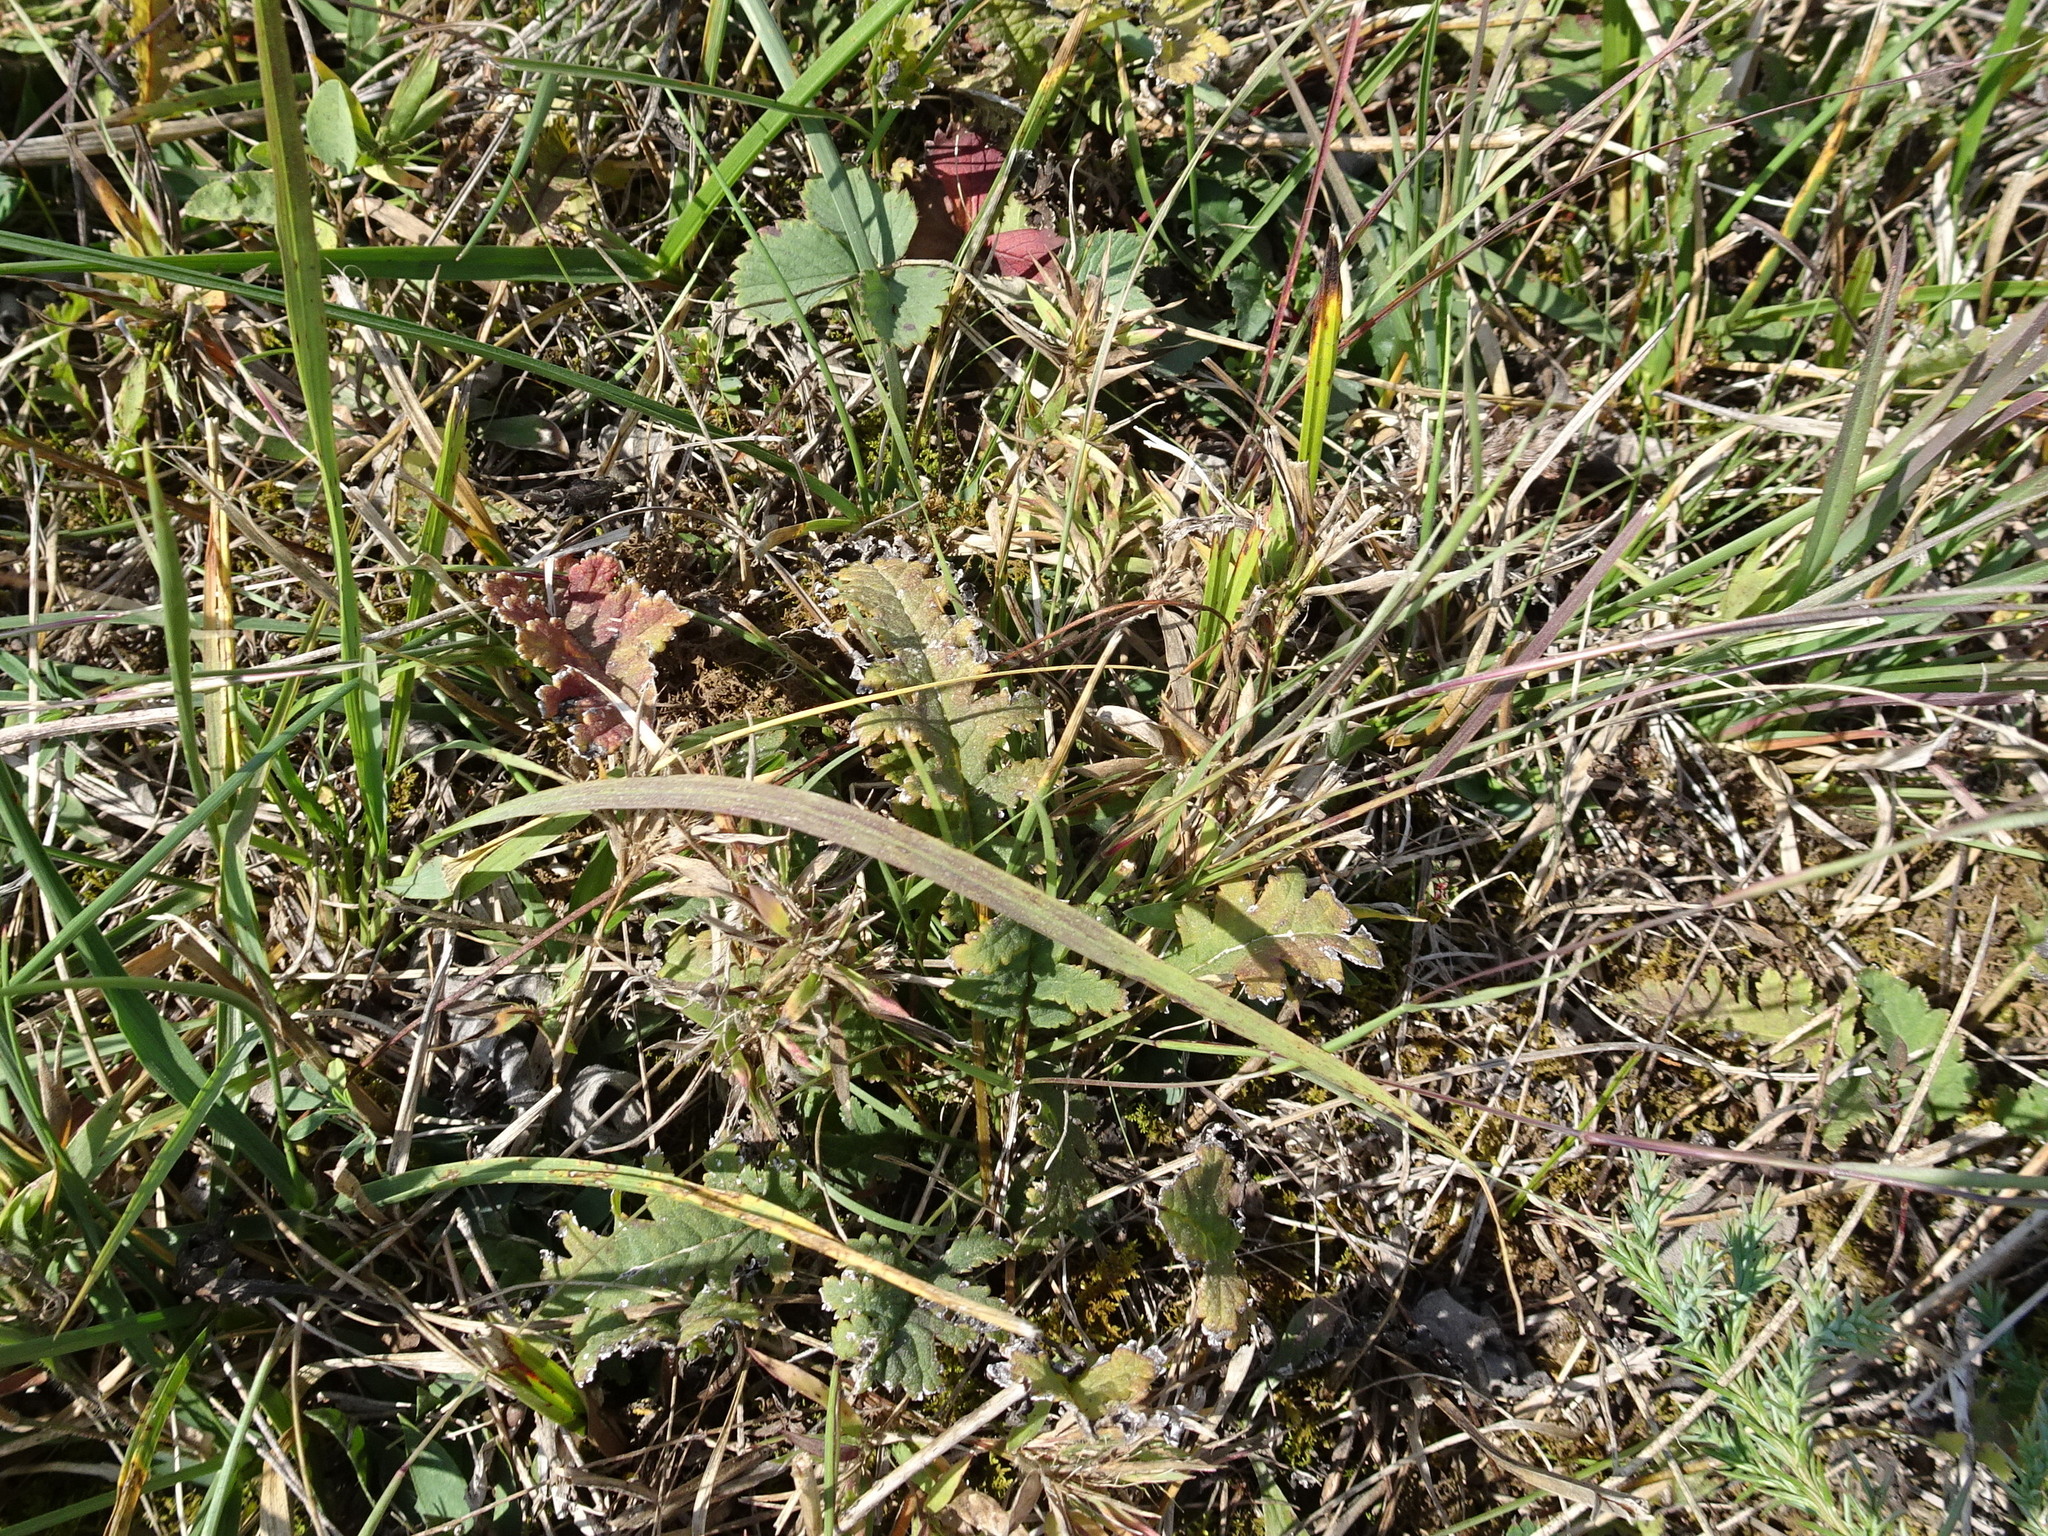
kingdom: Plantae
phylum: Tracheophyta
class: Magnoliopsida
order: Lamiales
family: Orobanchaceae
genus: Pedicularis
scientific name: Pedicularis canadensis
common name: Early lousewort
